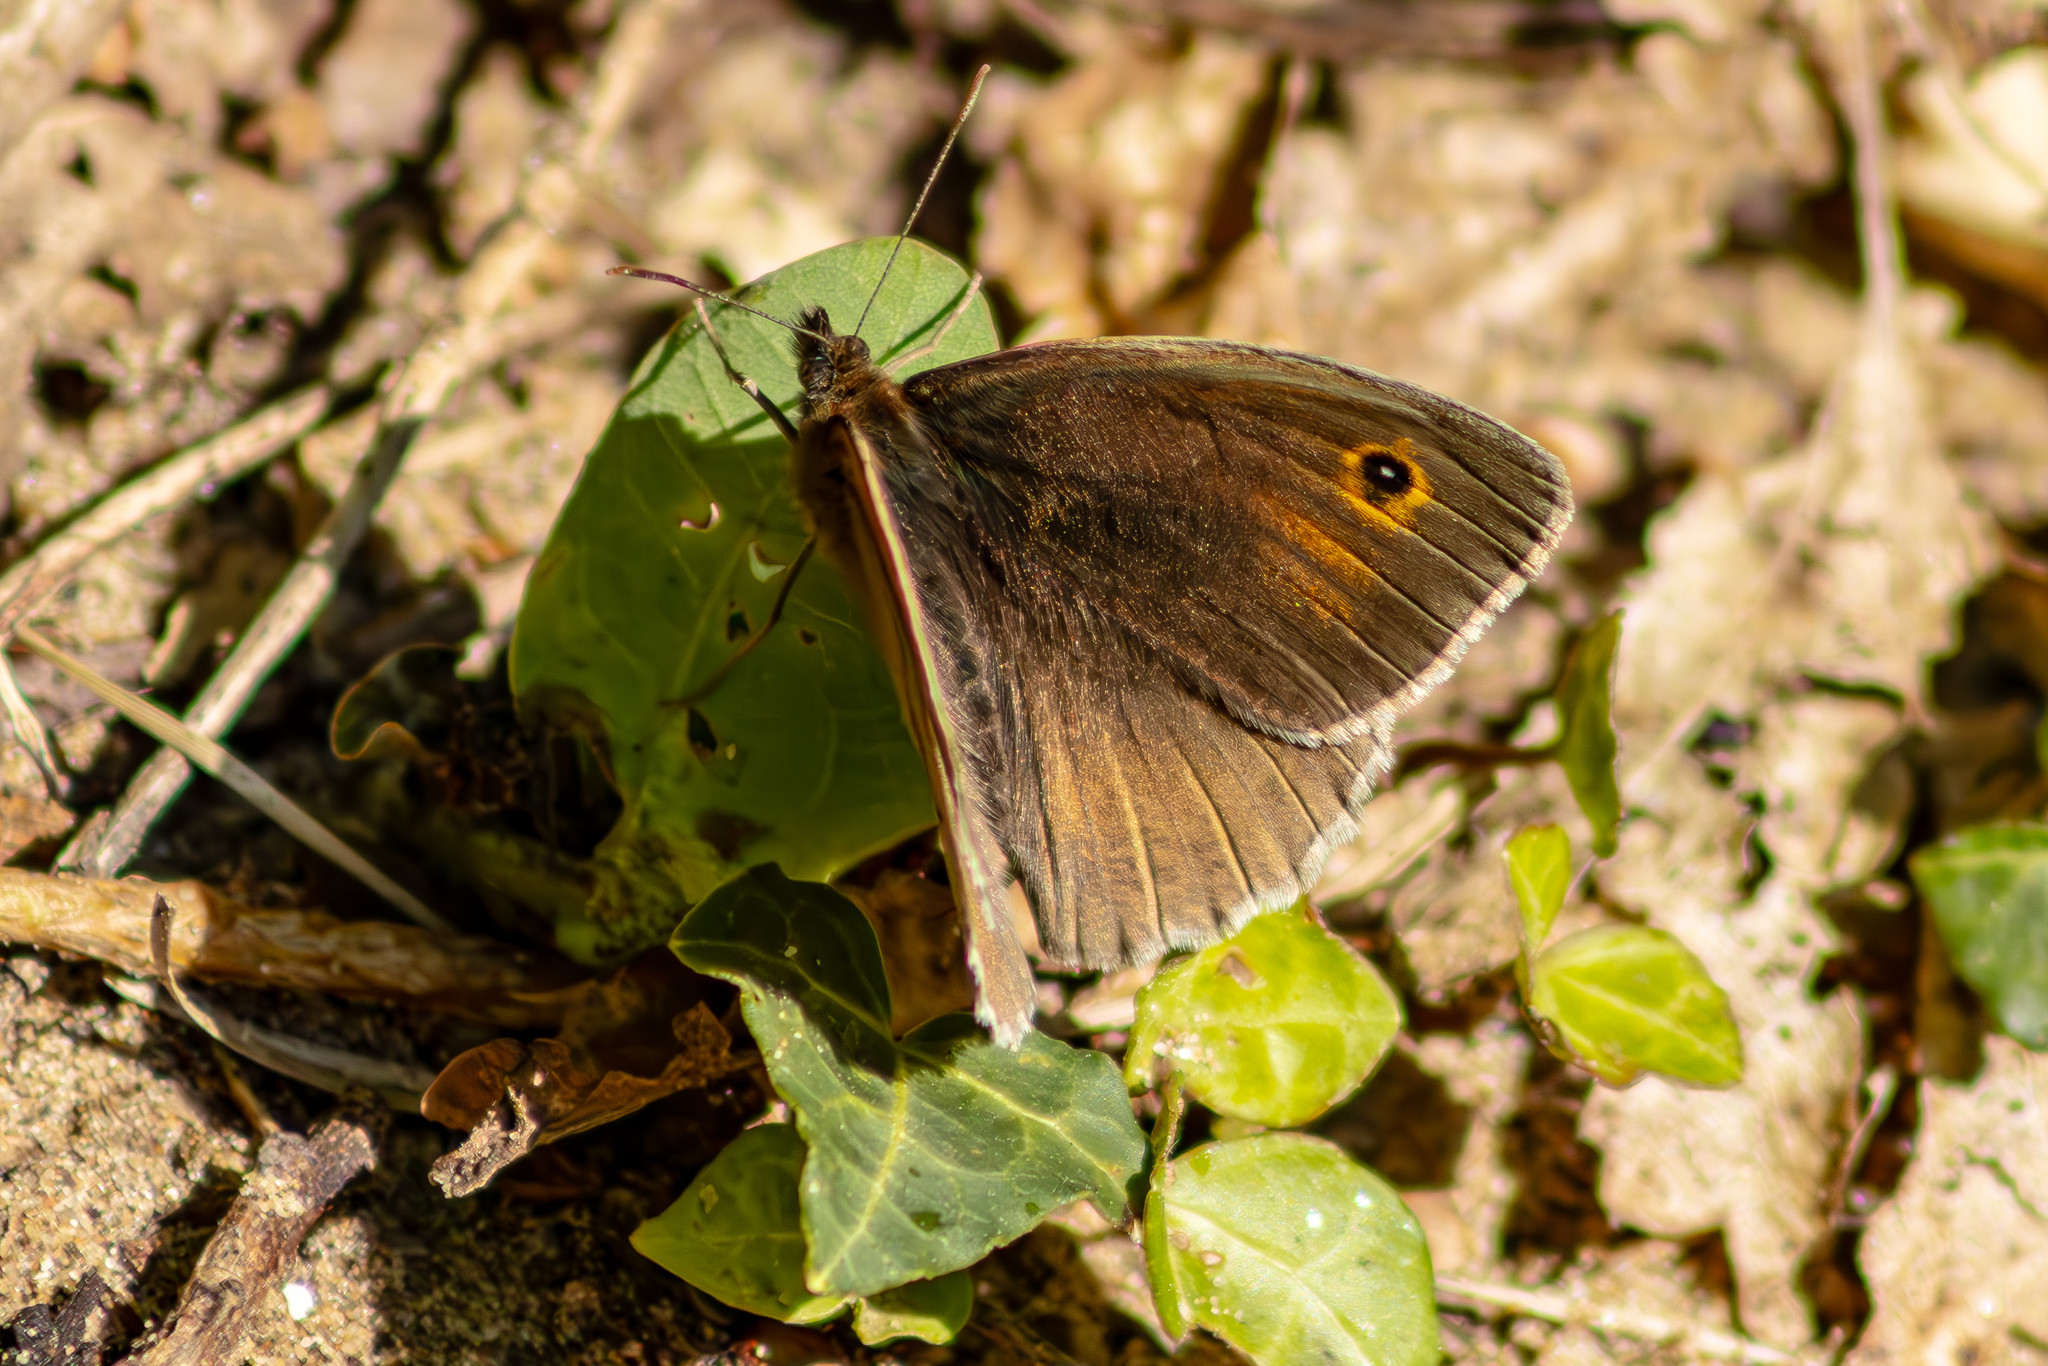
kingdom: Animalia
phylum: Arthropoda
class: Insecta
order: Lepidoptera
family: Nymphalidae
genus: Maniola
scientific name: Maniola jurtina
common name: Meadow brown
